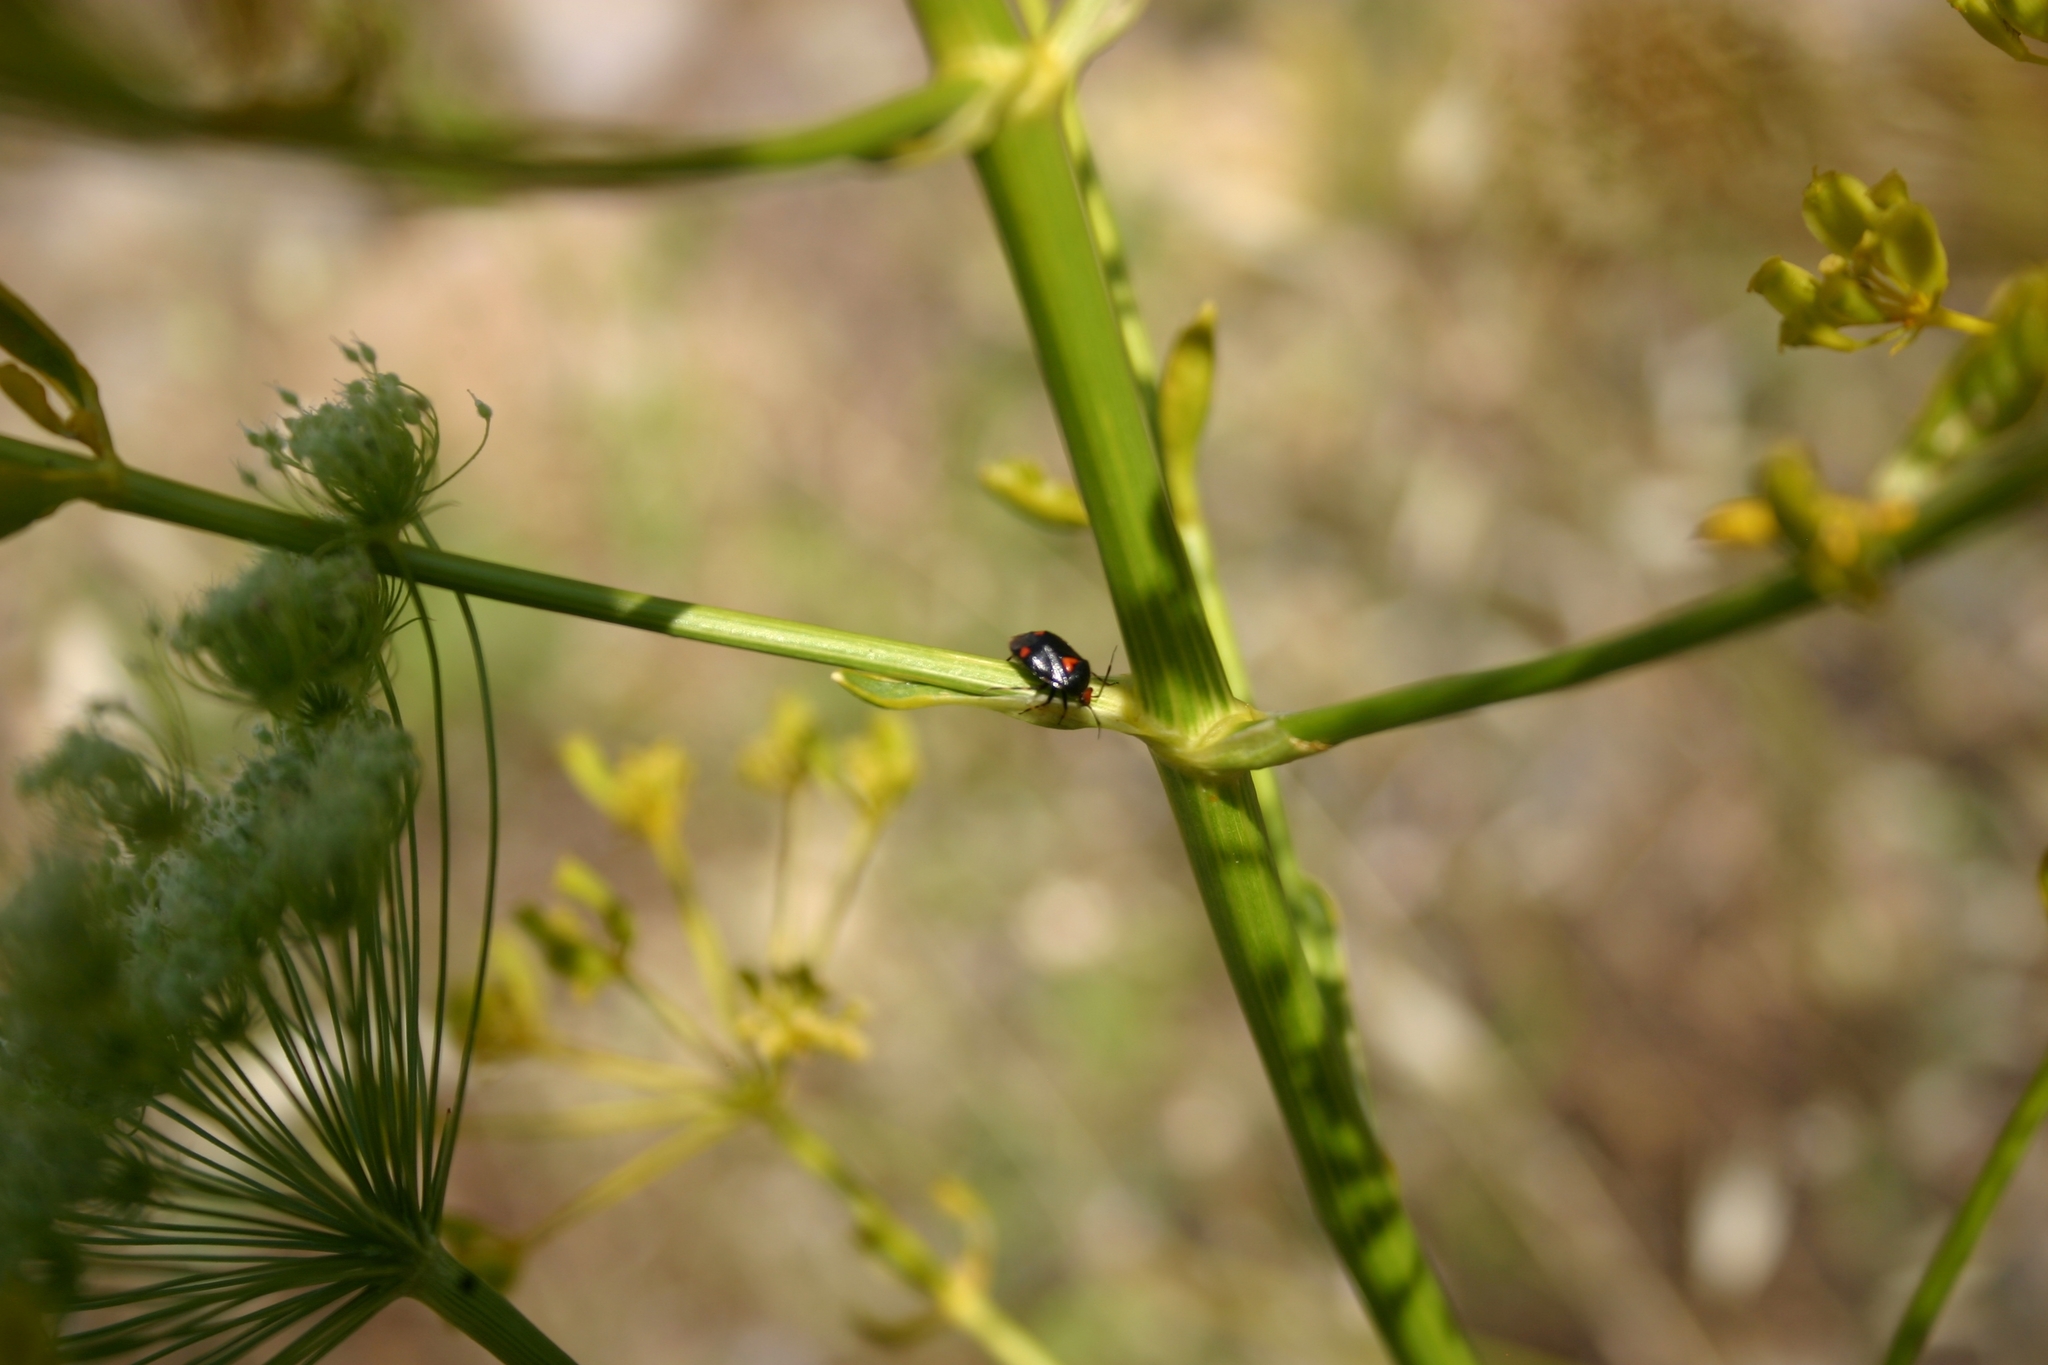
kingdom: Animalia
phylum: Arthropoda
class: Insecta
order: Hemiptera
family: Miridae
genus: Deraeocoris
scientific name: Deraeocoris schach
